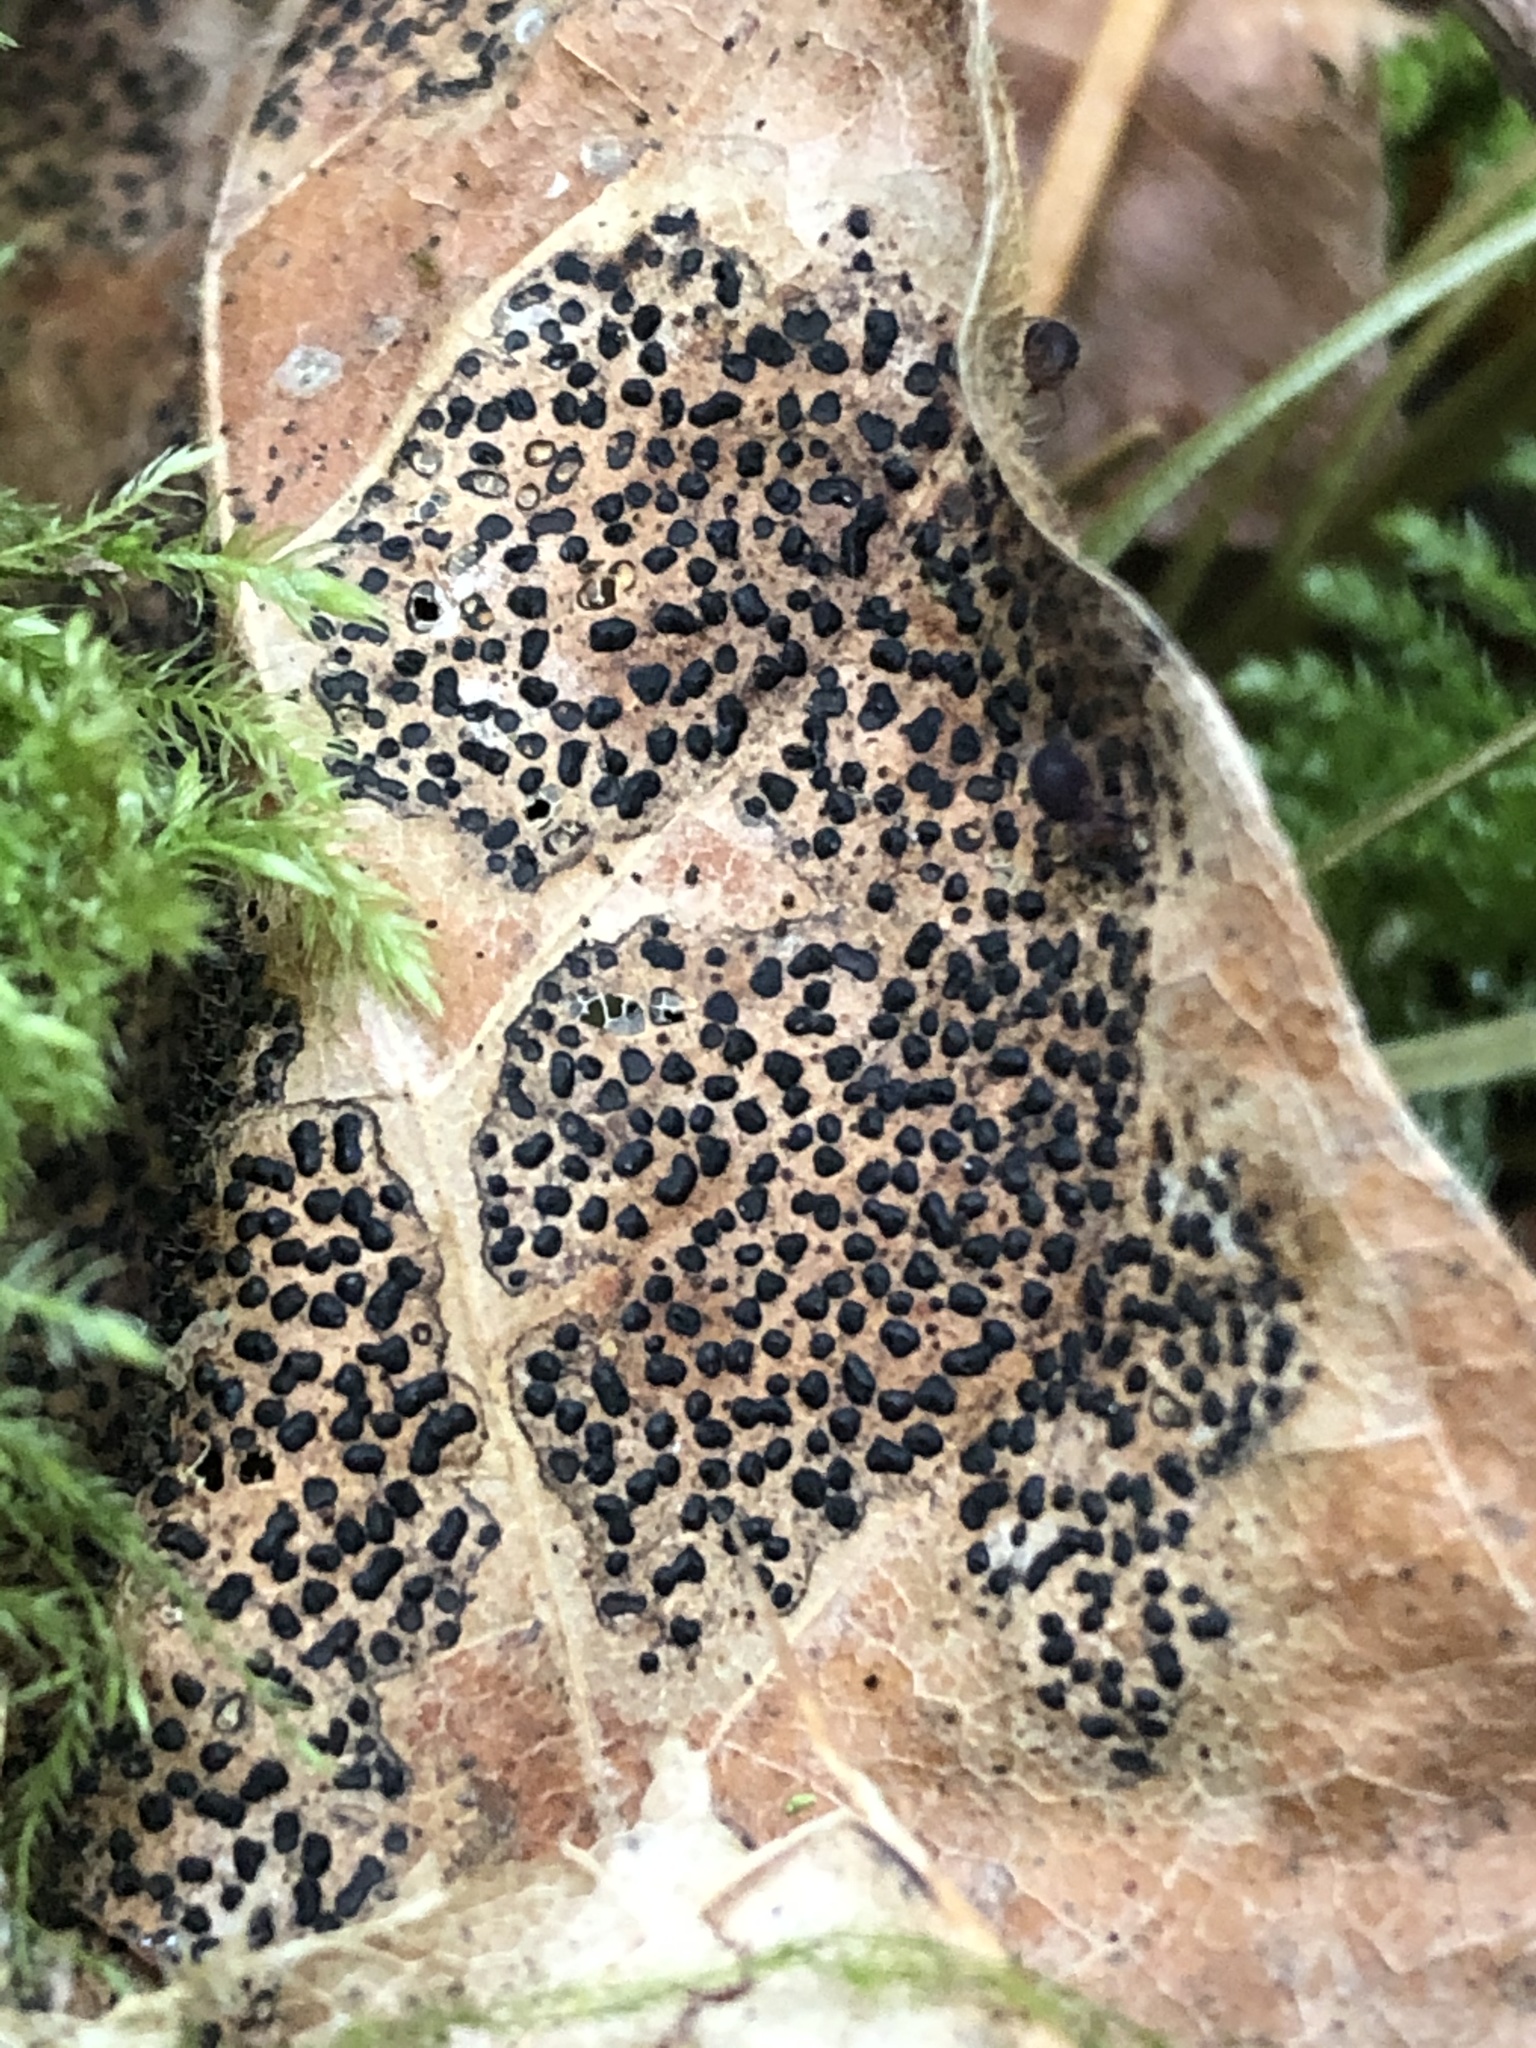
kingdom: Fungi
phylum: Ascomycota
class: Leotiomycetes
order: Rhytismatales
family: Rhytismataceae
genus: Rhytisma
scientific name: Rhytisma punctatum
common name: Speckled tar spot
